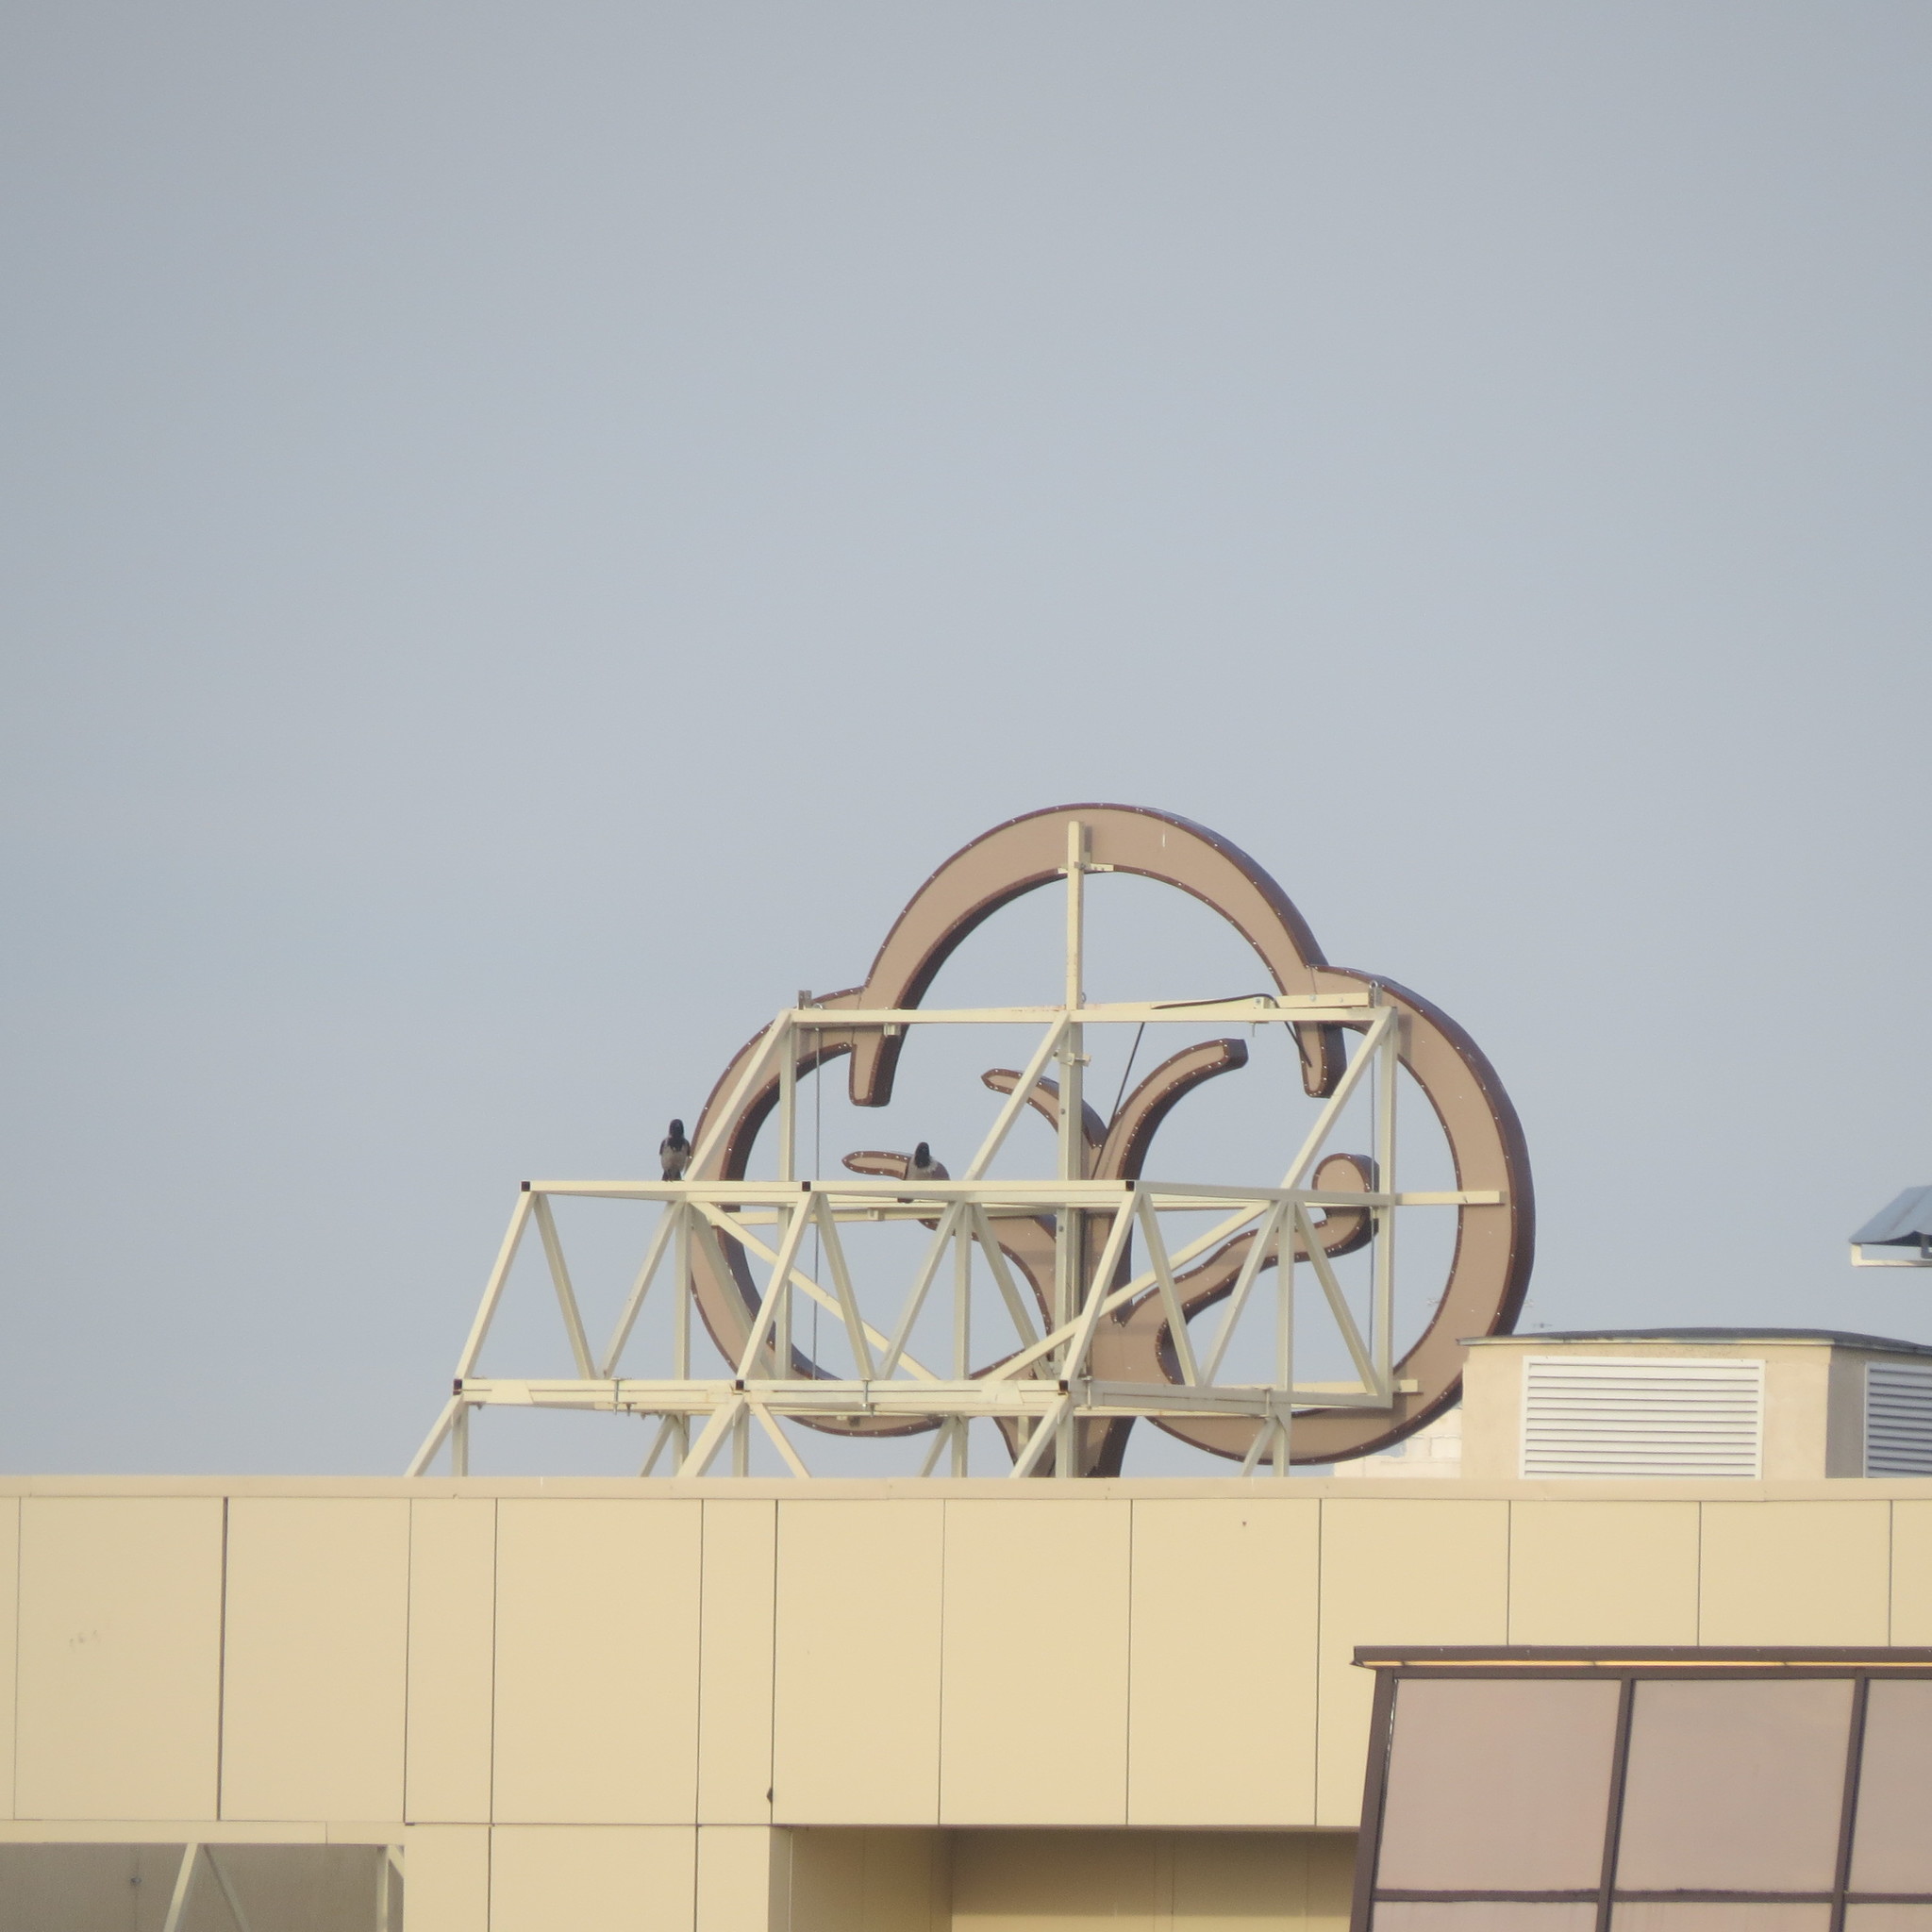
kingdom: Animalia
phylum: Chordata
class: Aves
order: Passeriformes
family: Corvidae
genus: Corvus
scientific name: Corvus cornix
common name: Hooded crow
